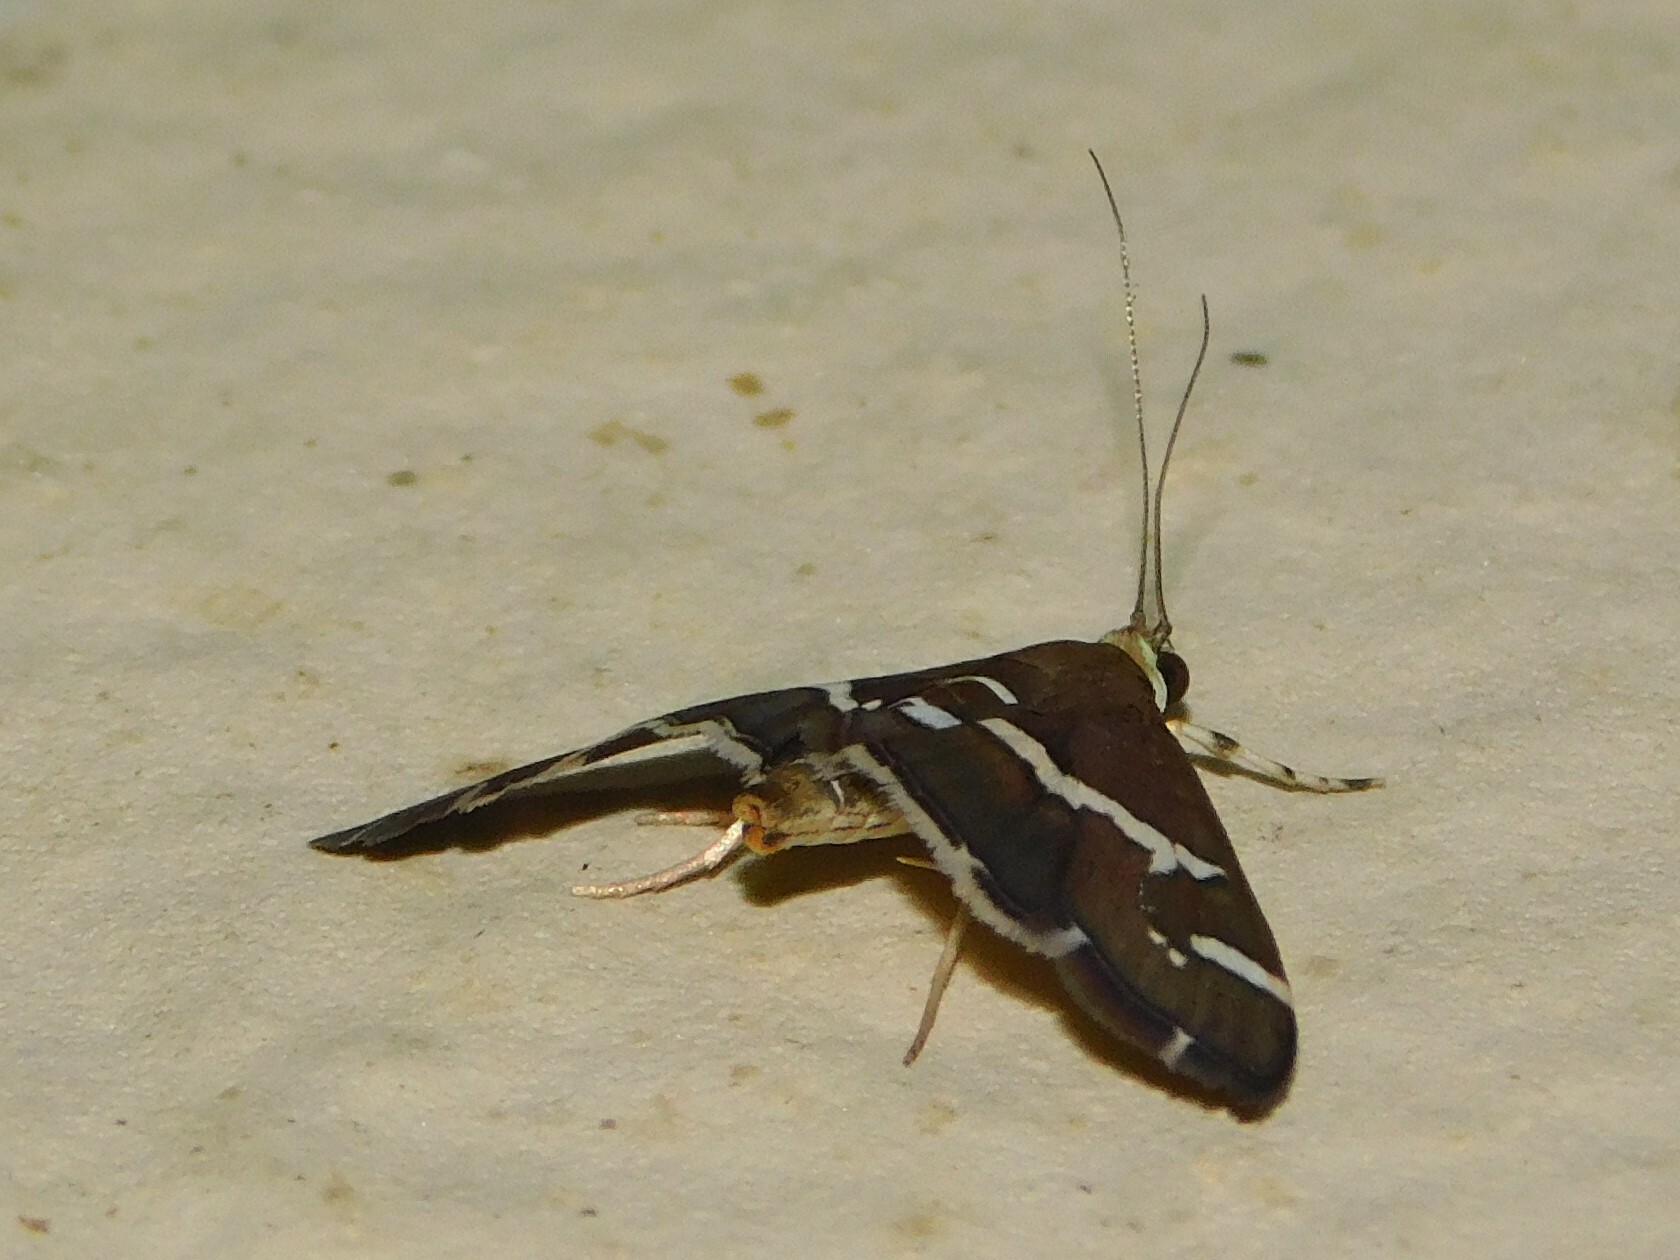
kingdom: Animalia
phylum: Arthropoda
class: Insecta
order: Lepidoptera
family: Crambidae
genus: Spoladea
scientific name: Spoladea recurvalis
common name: Beet webworm moth
